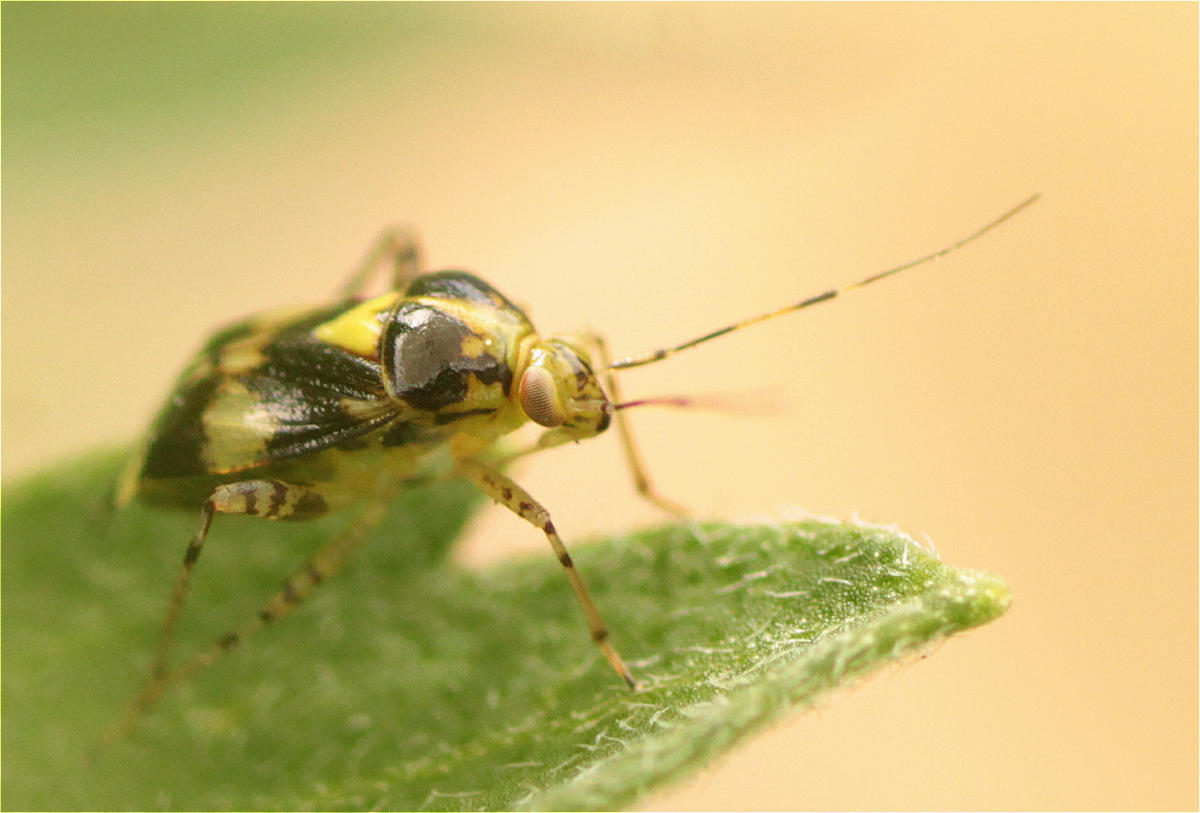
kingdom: Animalia
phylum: Arthropoda
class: Insecta
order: Hemiptera
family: Miridae
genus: Liocoris
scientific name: Liocoris tripustulatus
